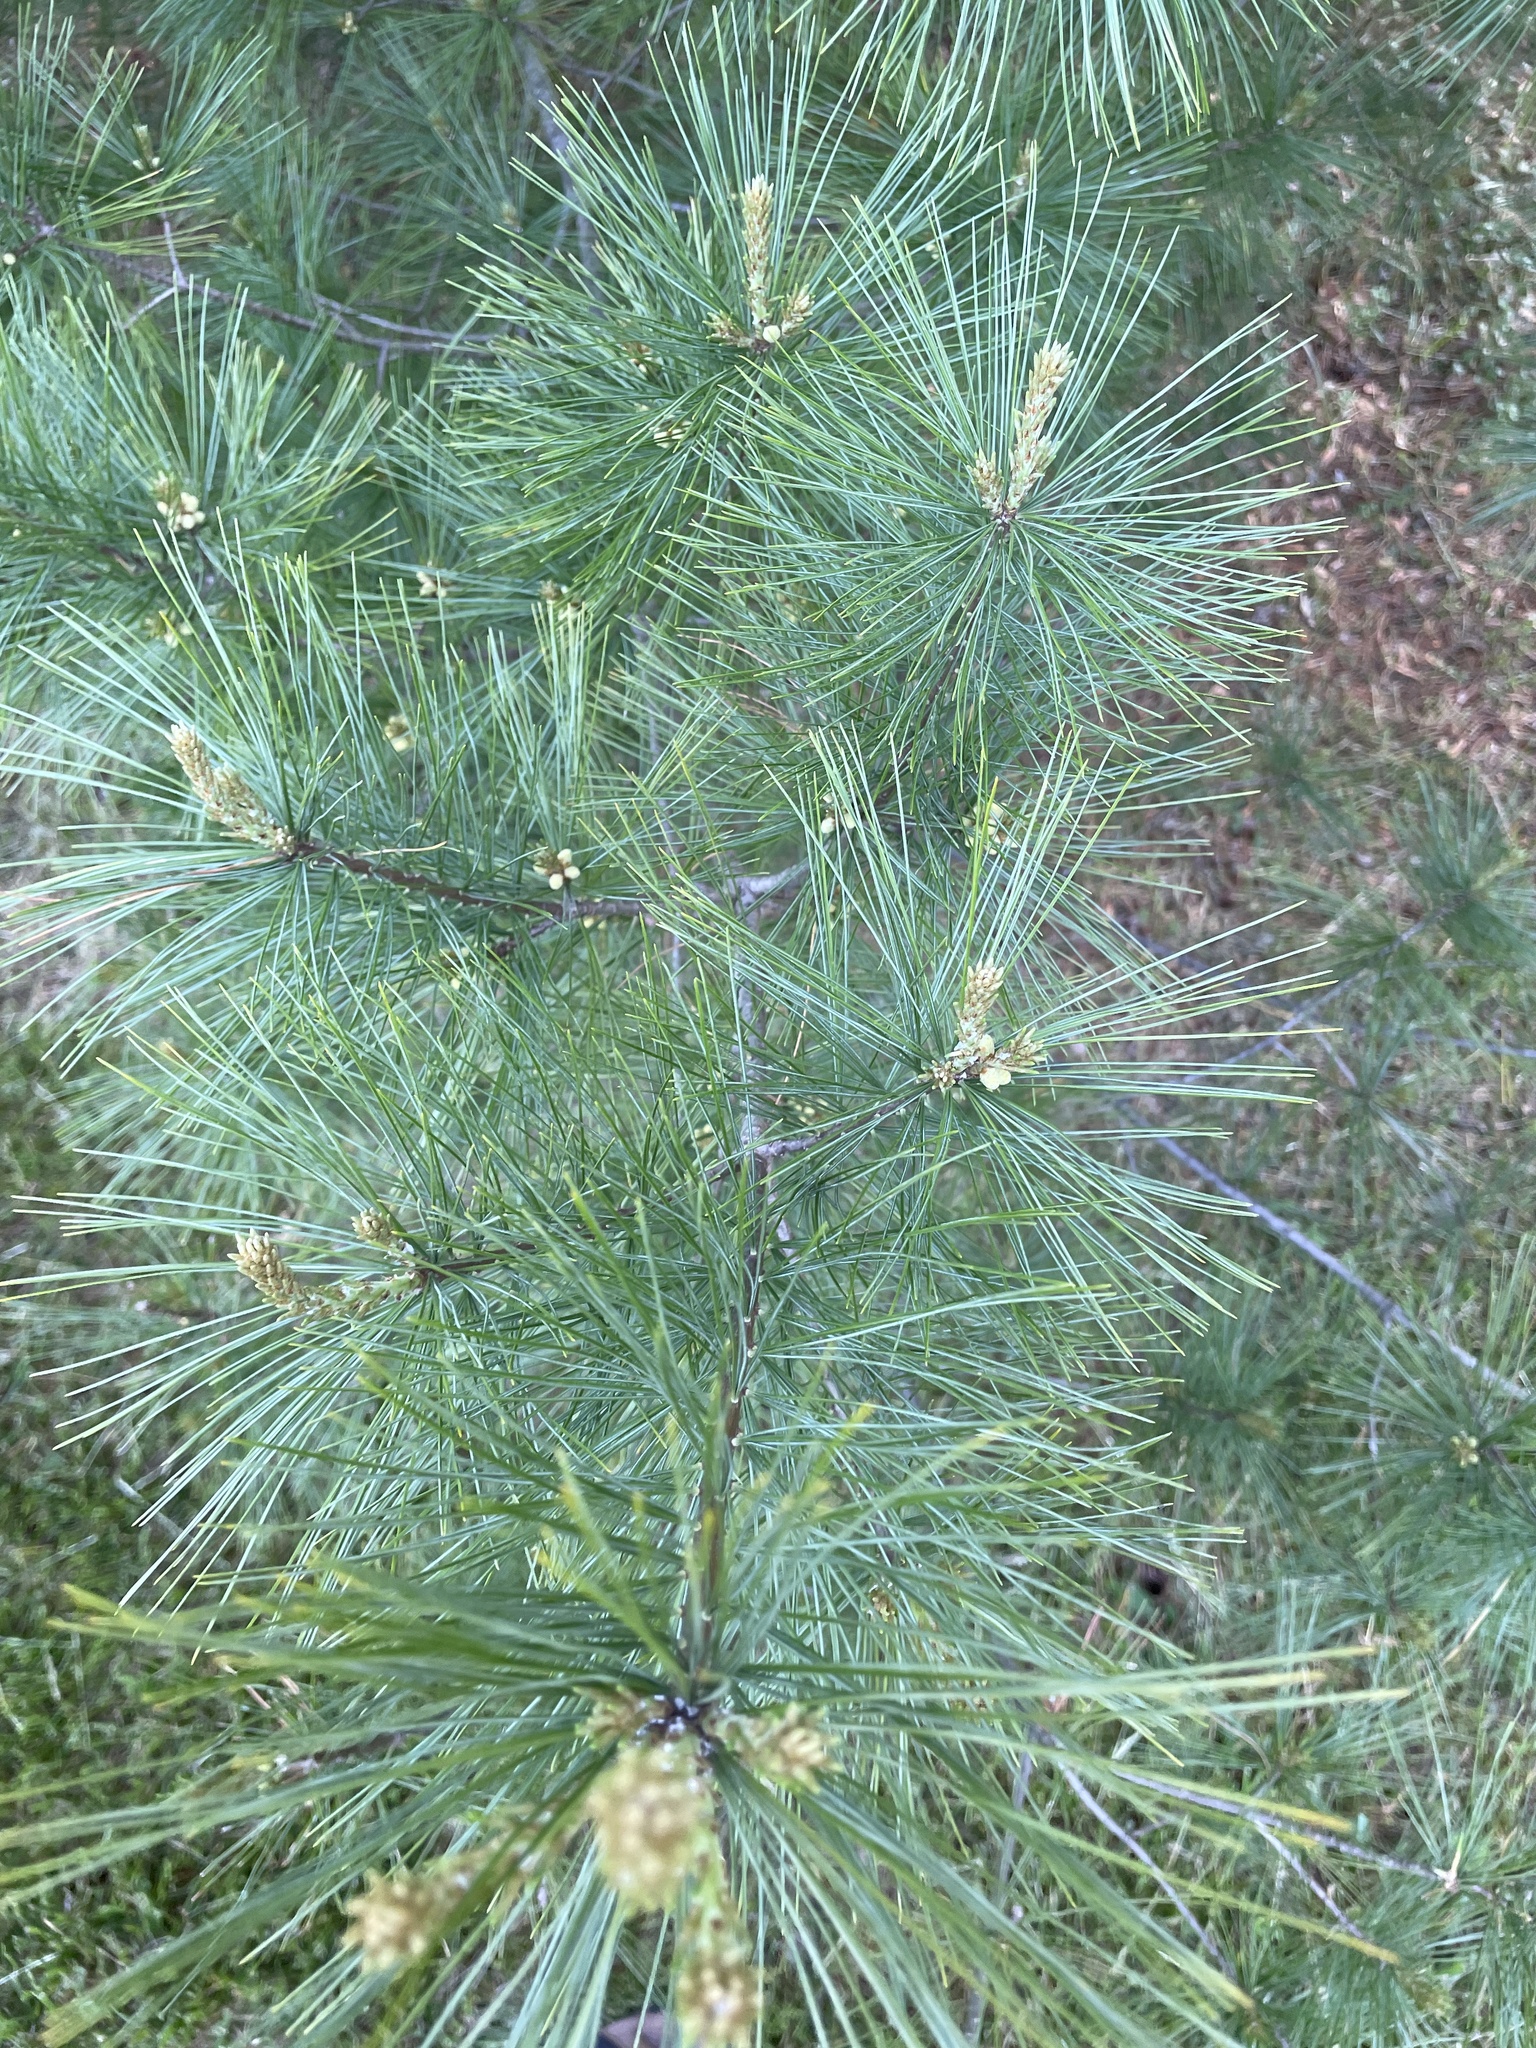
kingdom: Plantae
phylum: Tracheophyta
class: Pinopsida
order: Pinales
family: Pinaceae
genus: Pinus
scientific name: Pinus strobus
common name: Weymouth pine
